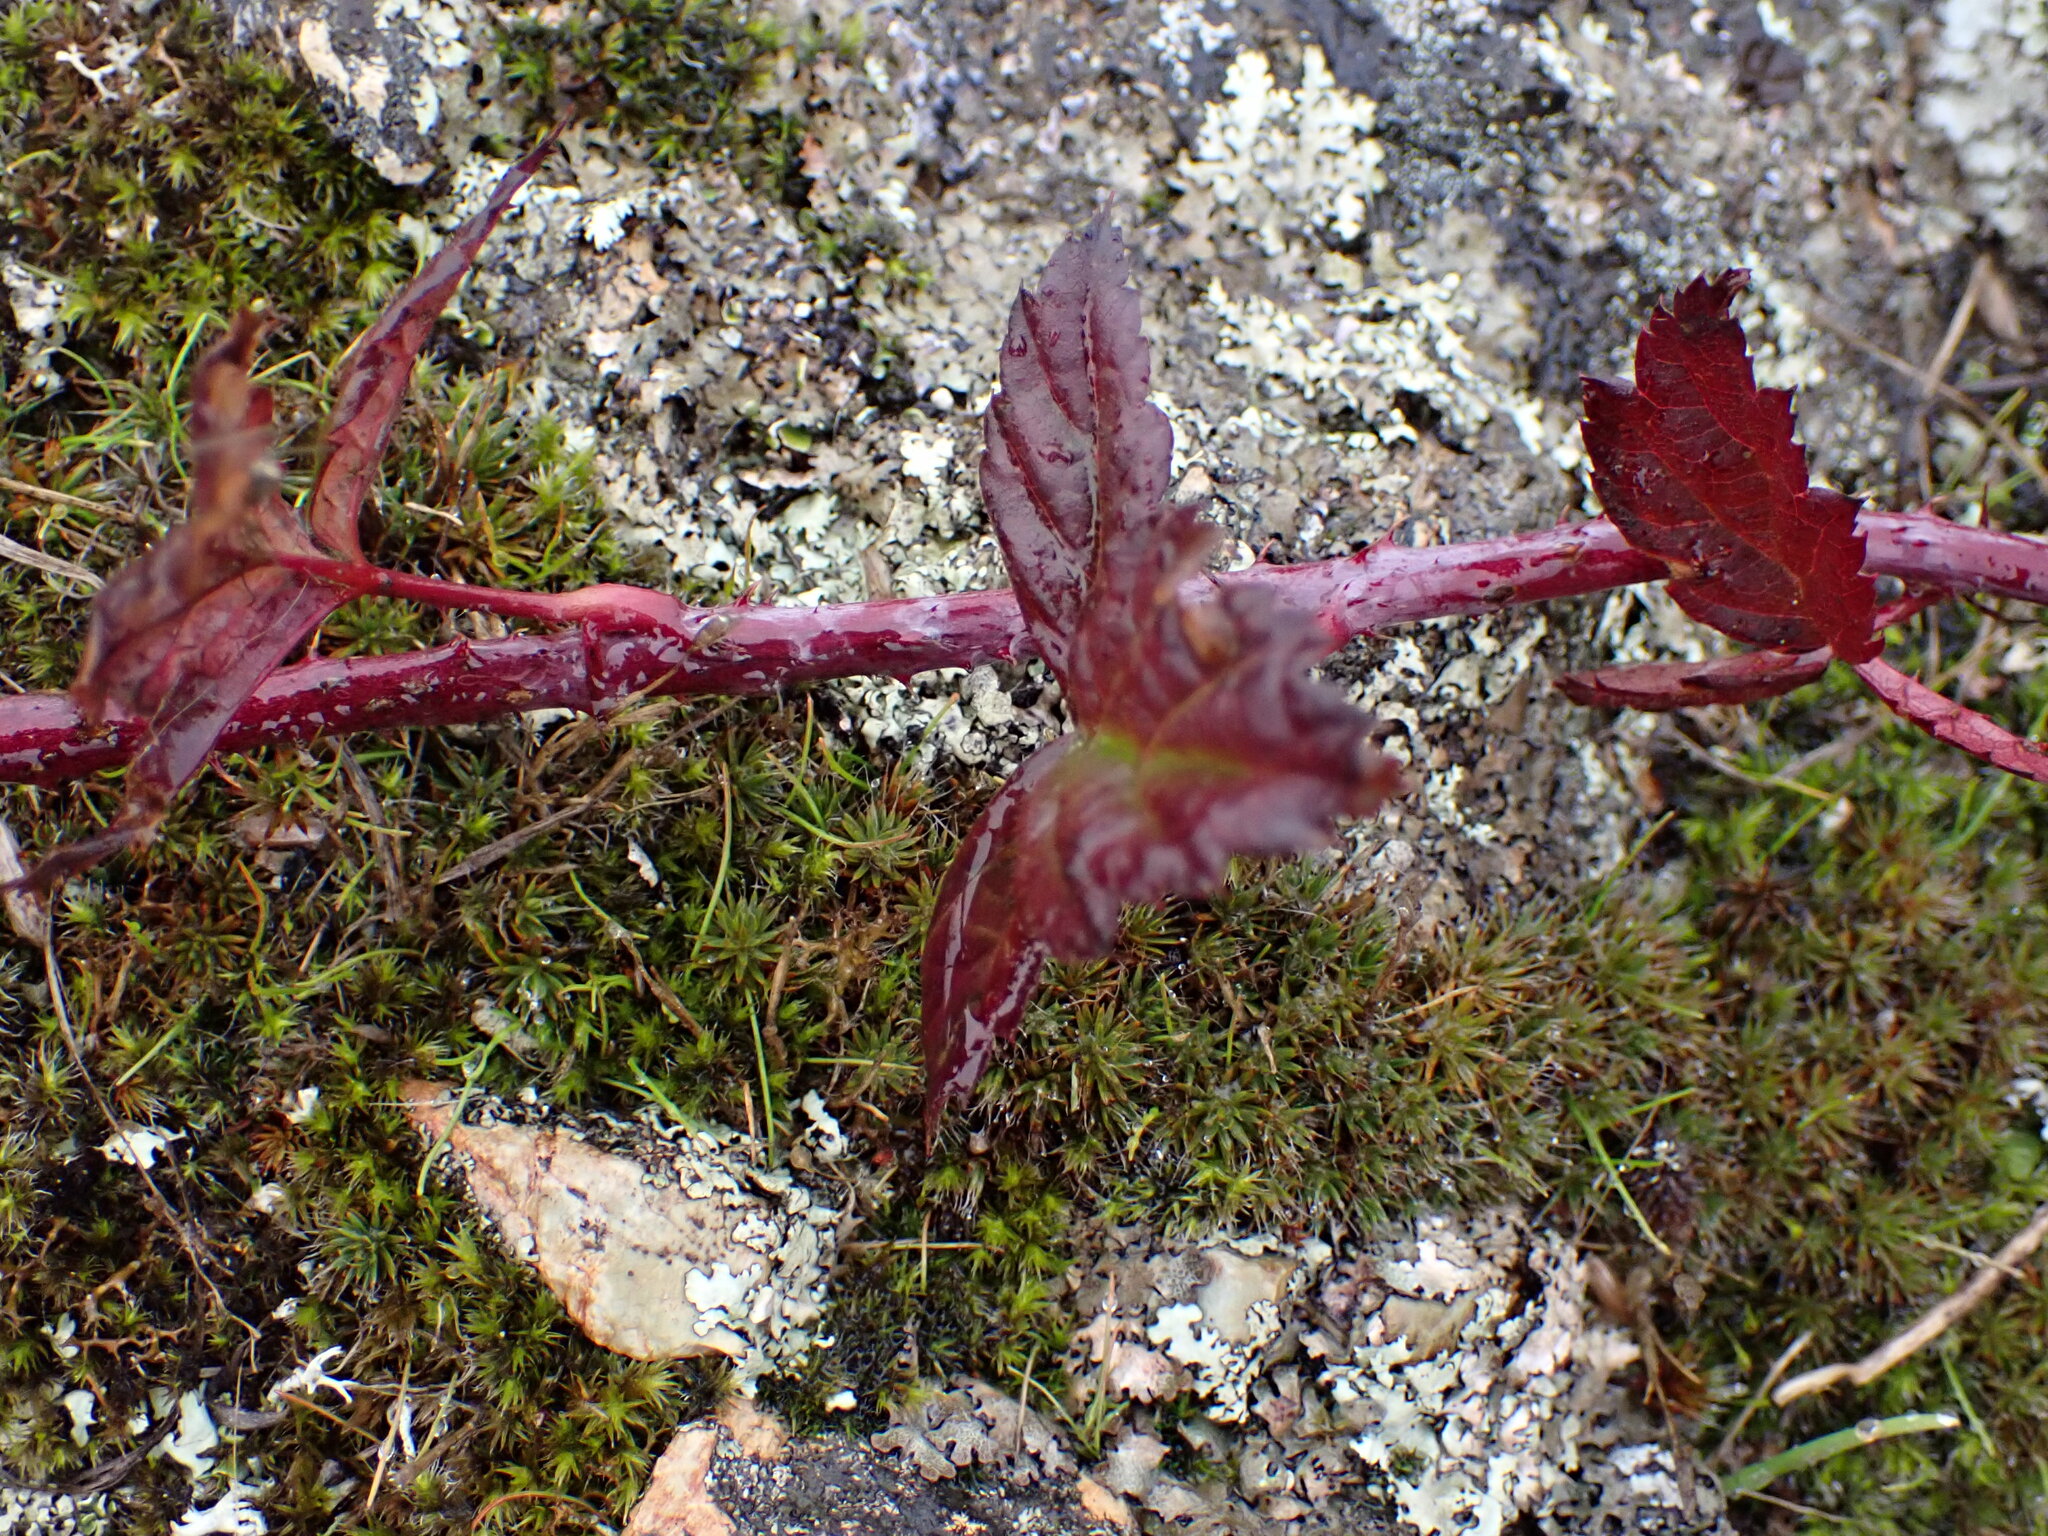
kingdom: Plantae
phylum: Tracheophyta
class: Magnoliopsida
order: Rosales
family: Rosaceae
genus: Rubus
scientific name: Rubus ursinus
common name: Pacific blackberry
